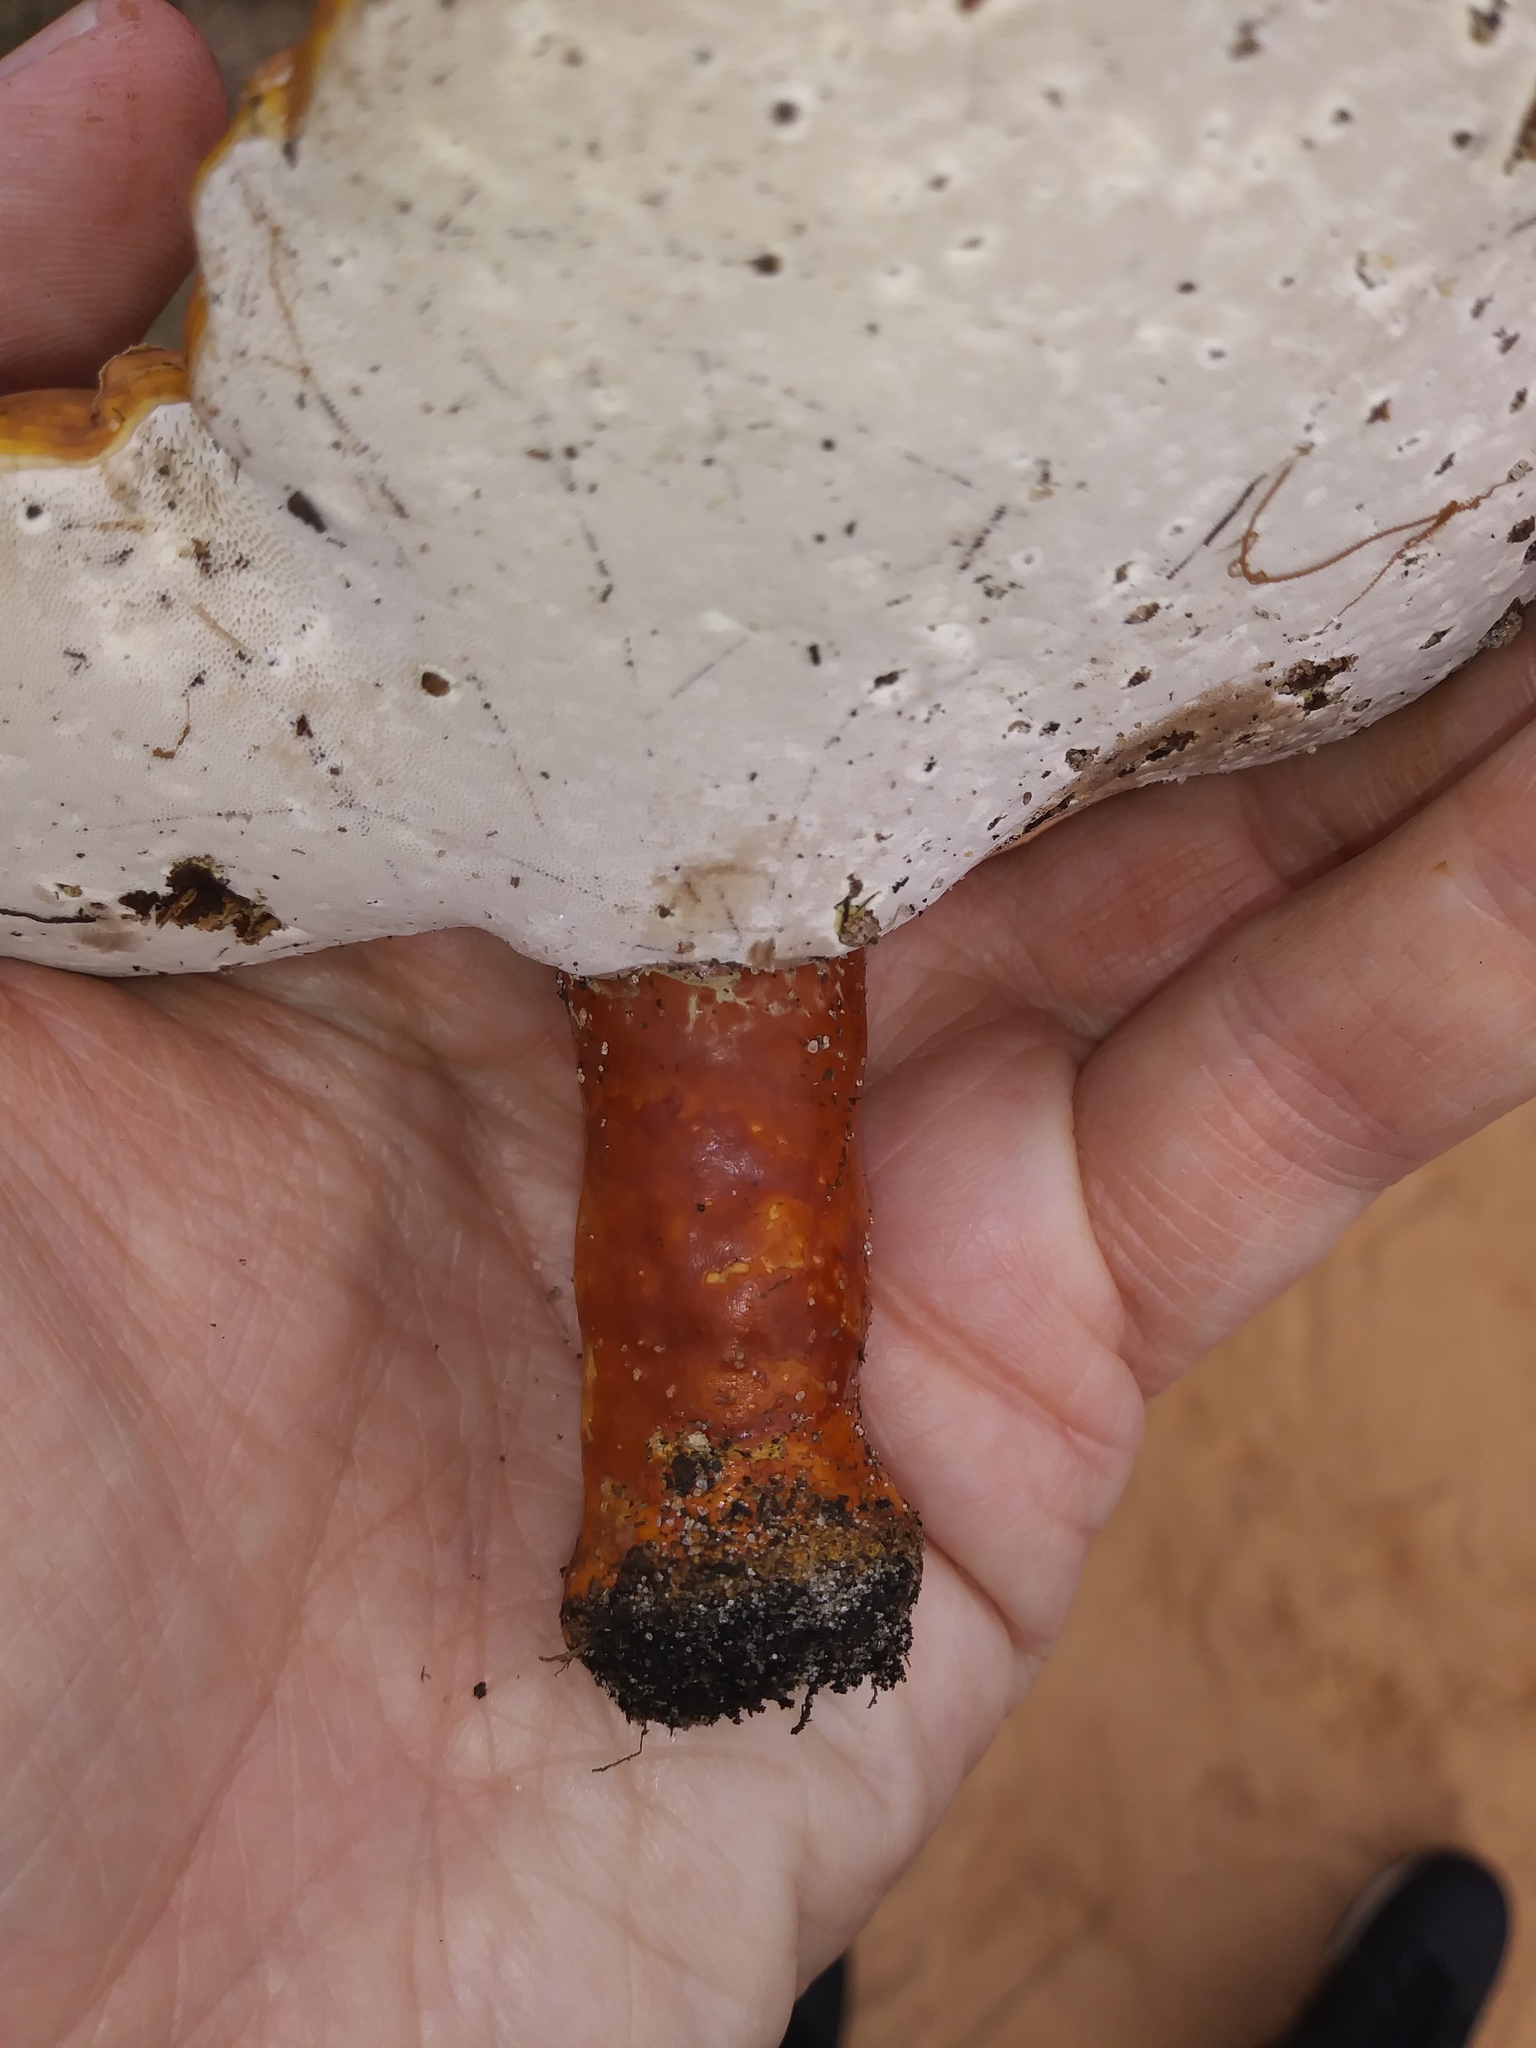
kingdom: Fungi
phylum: Basidiomycota
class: Agaricomycetes
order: Polyporales
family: Polyporaceae
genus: Ganoderma
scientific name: Ganoderma curtisii
